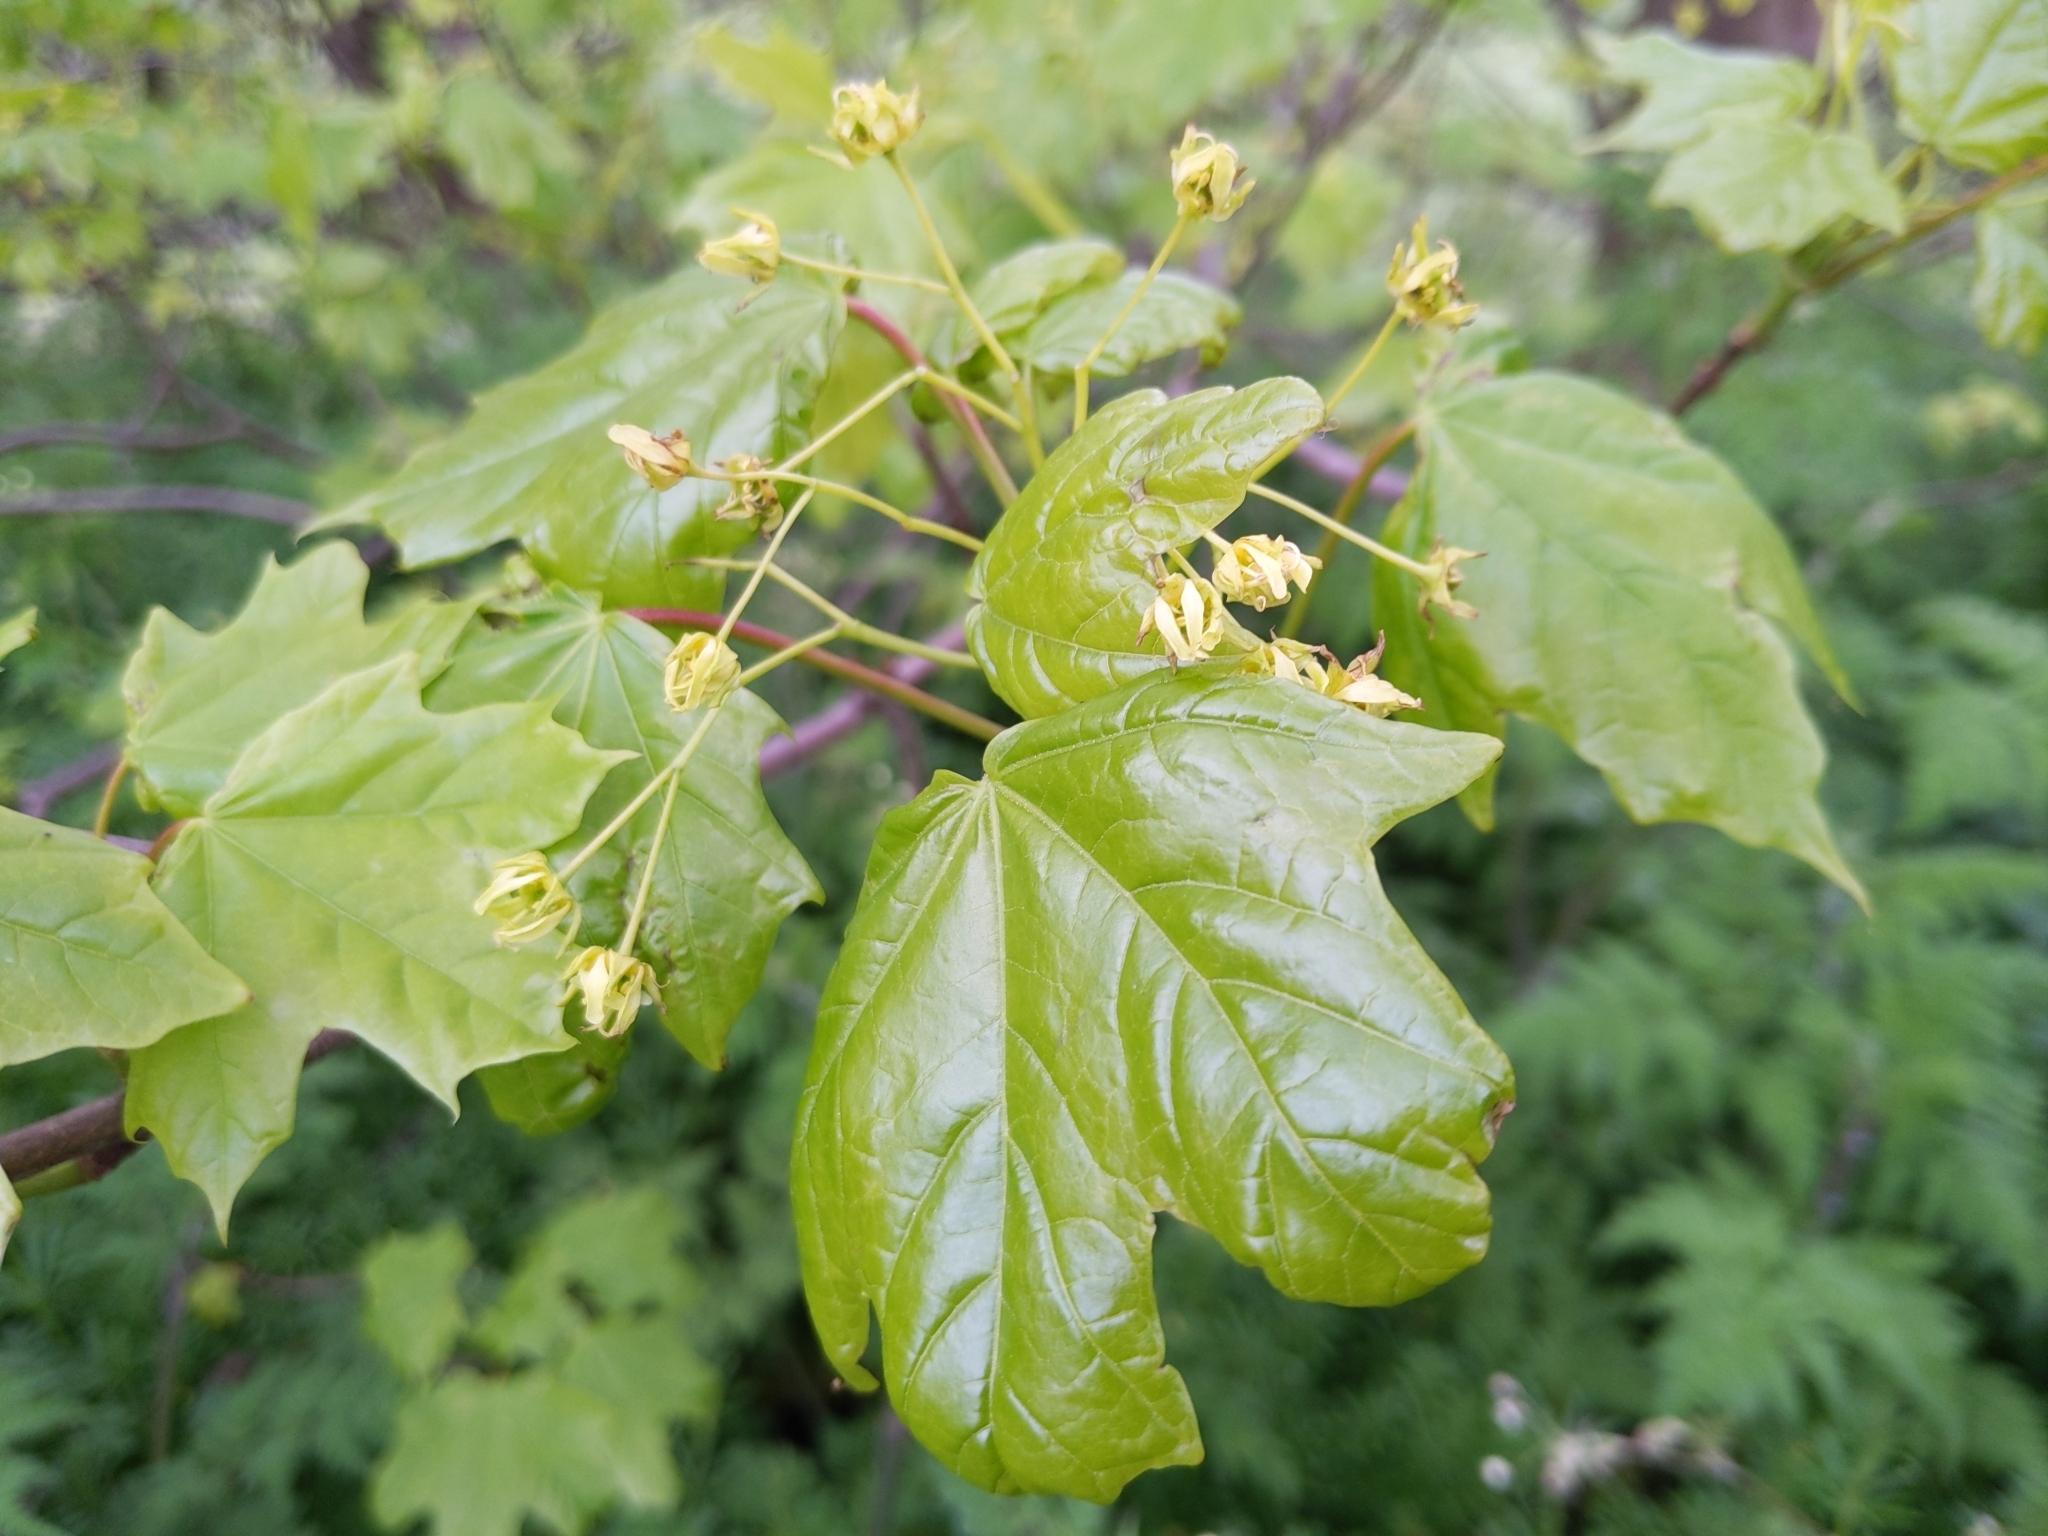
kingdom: Plantae
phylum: Tracheophyta
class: Magnoliopsida
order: Sapindales
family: Sapindaceae
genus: Acer
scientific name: Acer platanoides
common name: Norway maple
